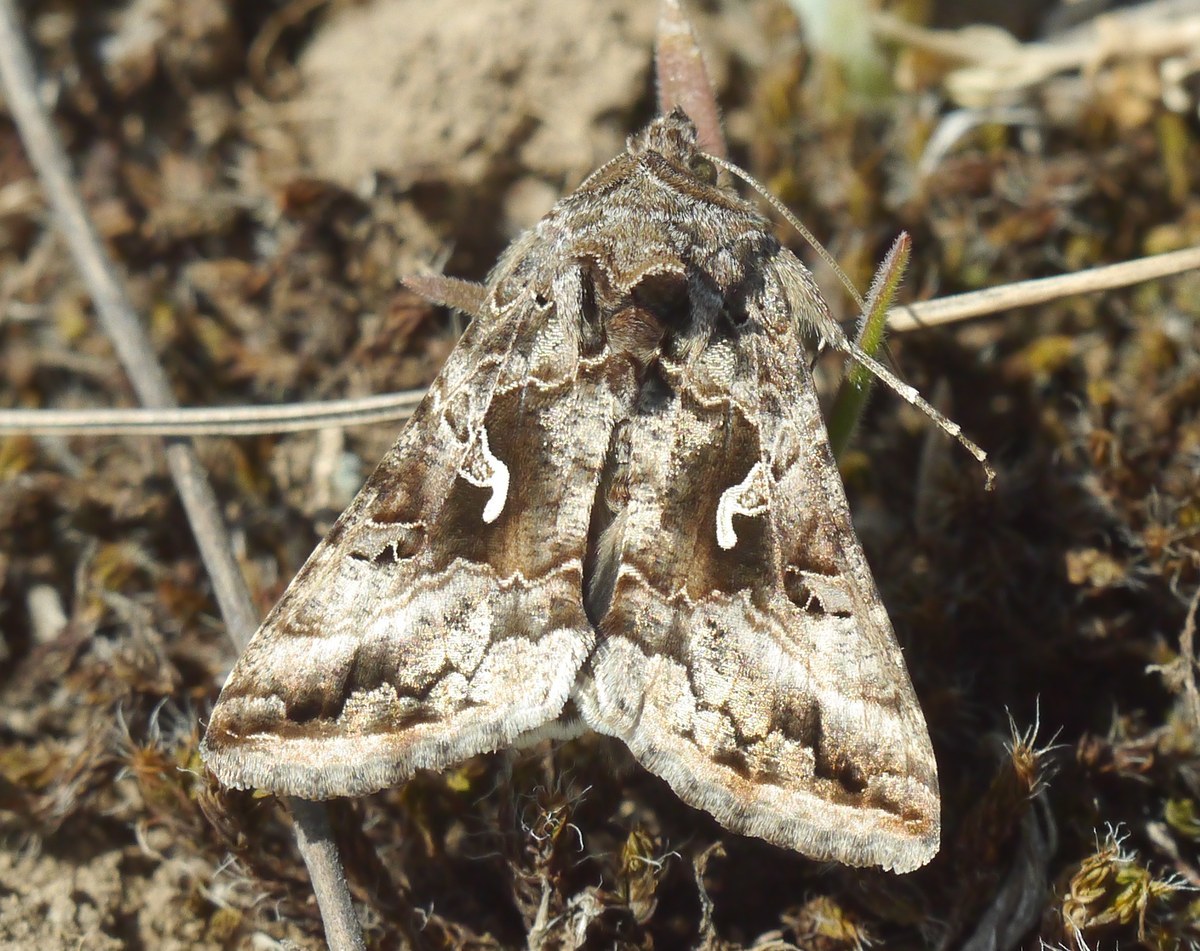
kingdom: Animalia
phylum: Arthropoda
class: Insecta
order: Lepidoptera
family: Noctuidae
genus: Autographa
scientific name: Autographa gamma
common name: Silver y
